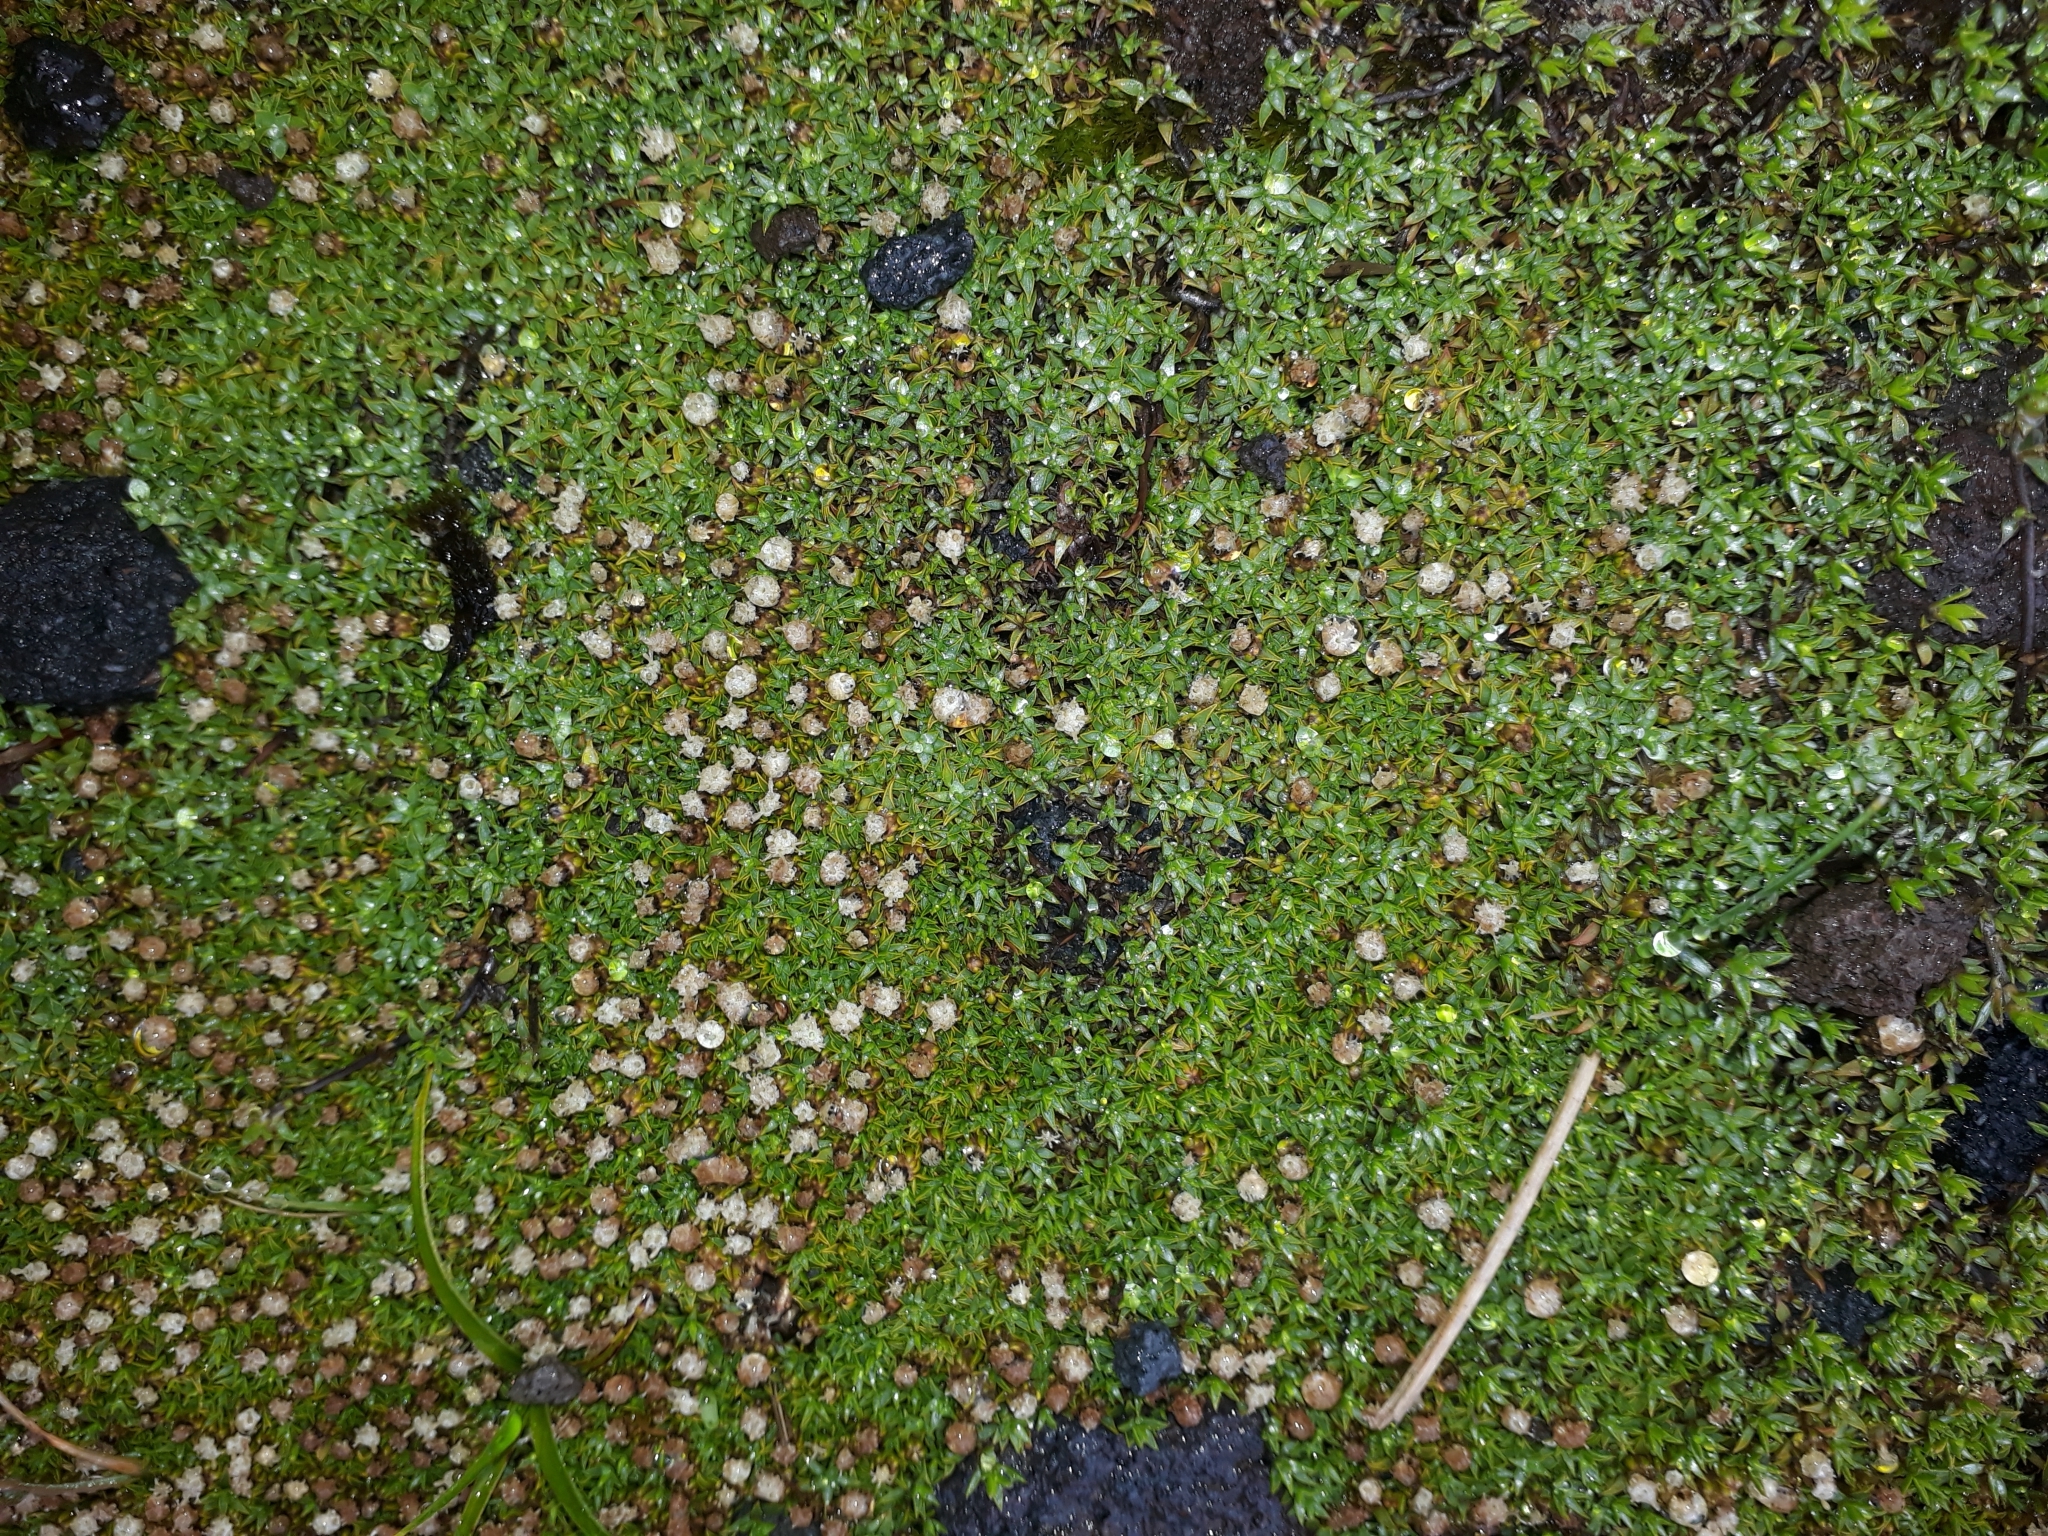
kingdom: Plantae
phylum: Tracheophyta
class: Magnoliopsida
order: Asterales
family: Asteraceae
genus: Raoulia
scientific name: Raoulia tenuicaulis
